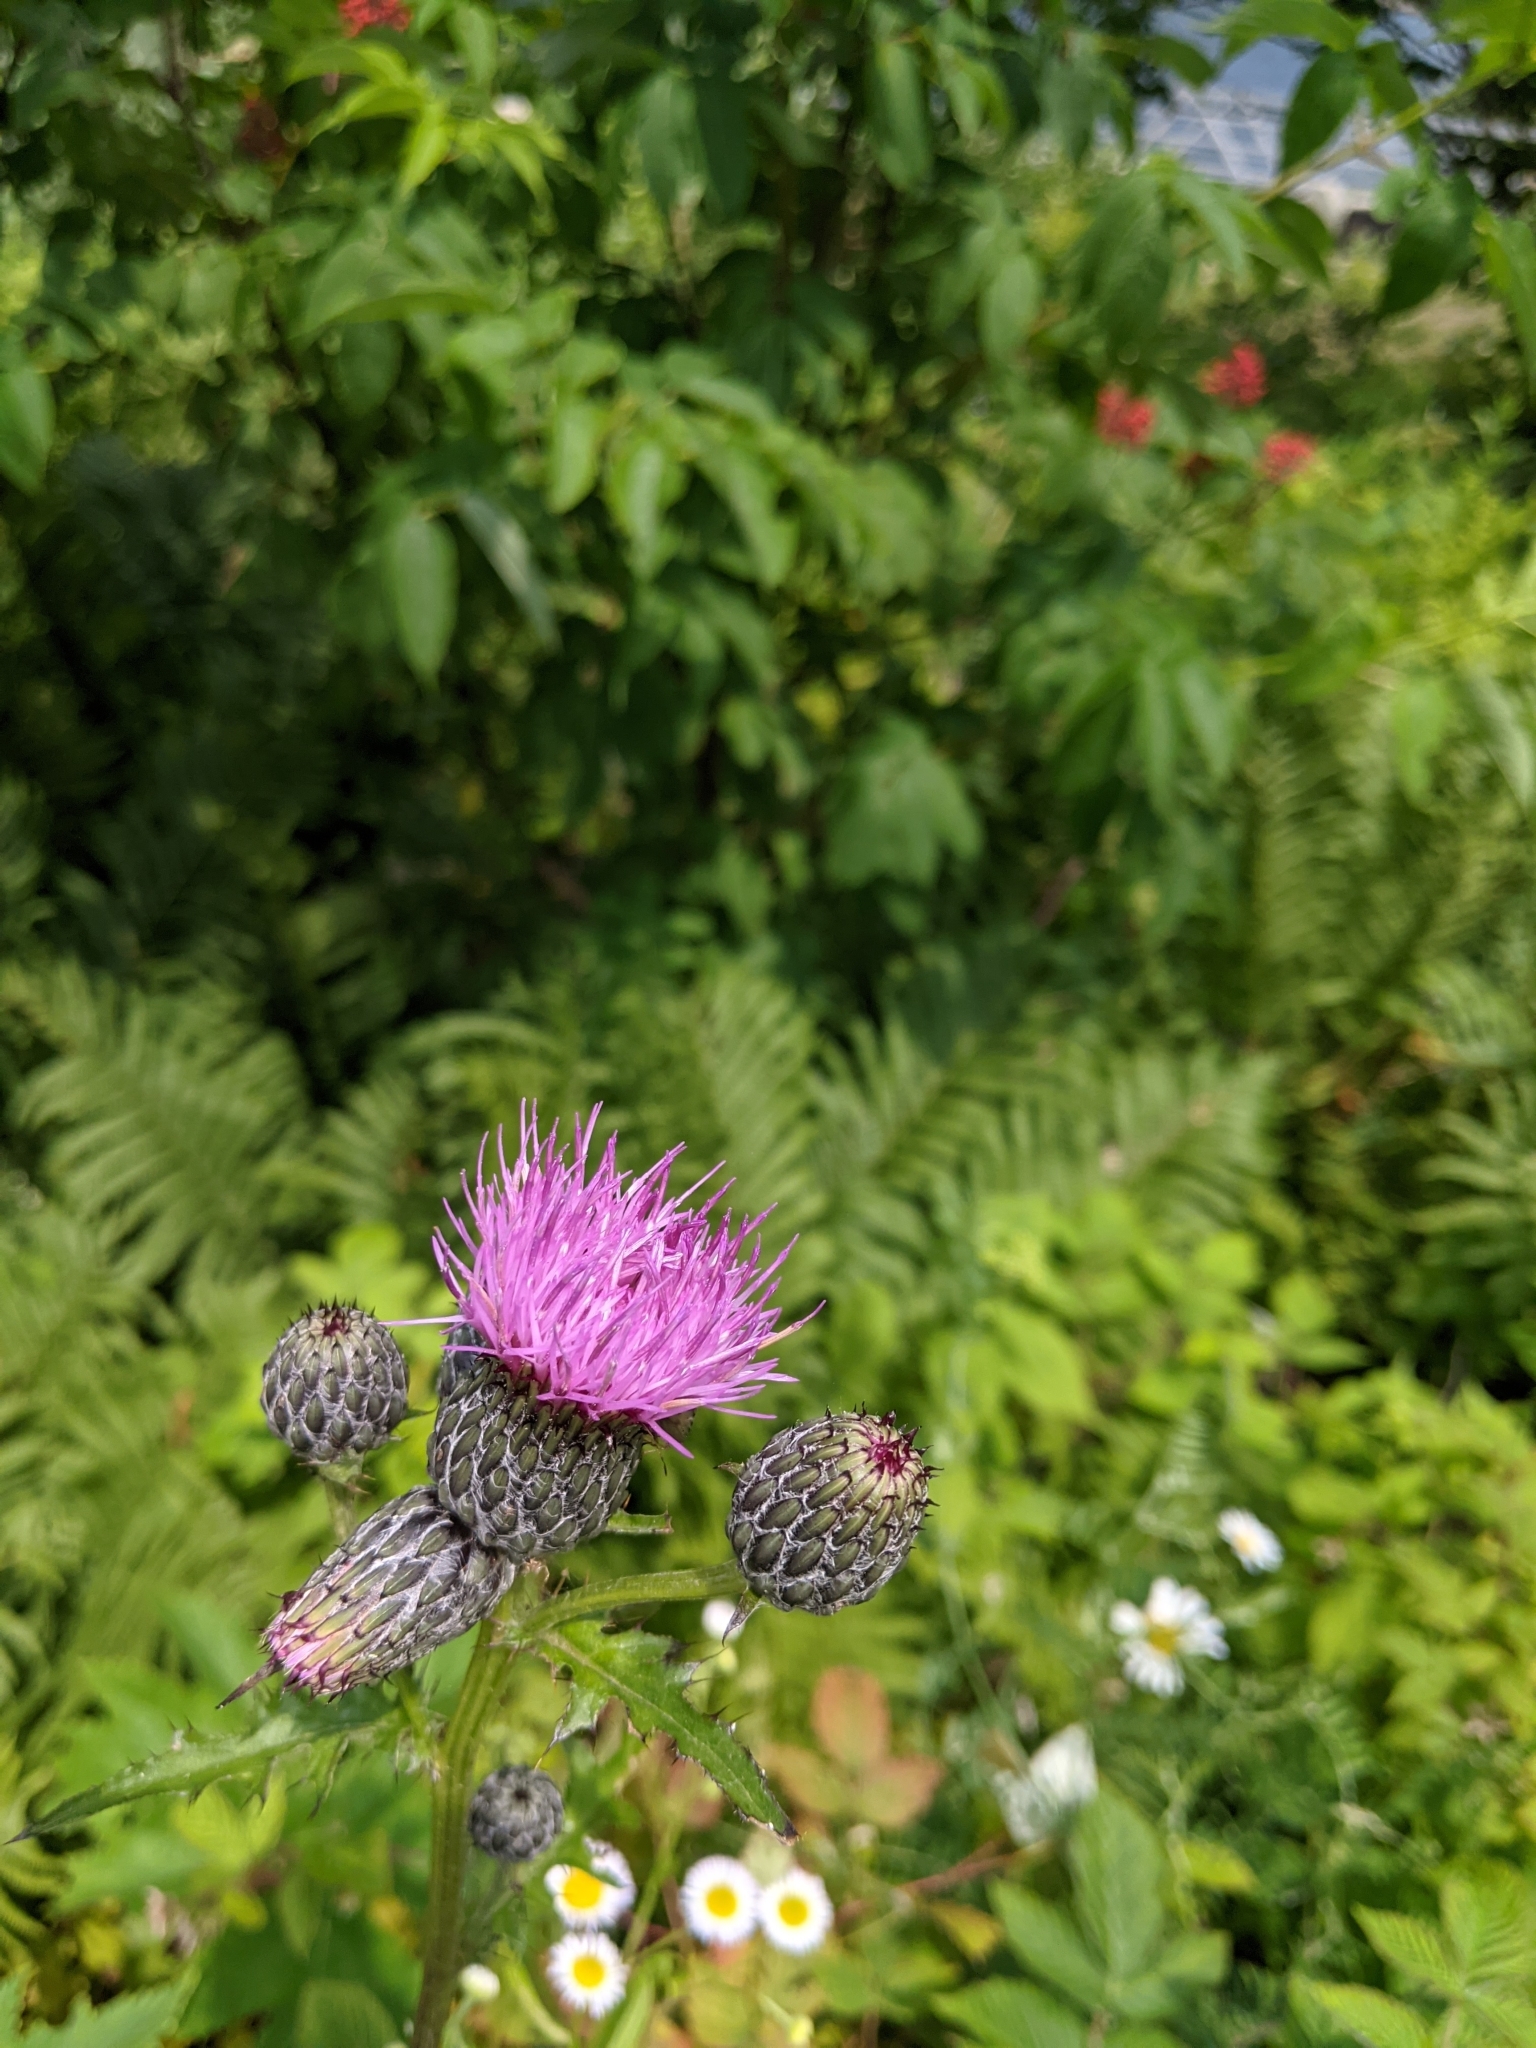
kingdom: Plantae
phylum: Tracheophyta
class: Magnoliopsida
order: Asterales
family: Asteraceae
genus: Cirsium
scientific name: Cirsium muticum
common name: Dunce-nettle
